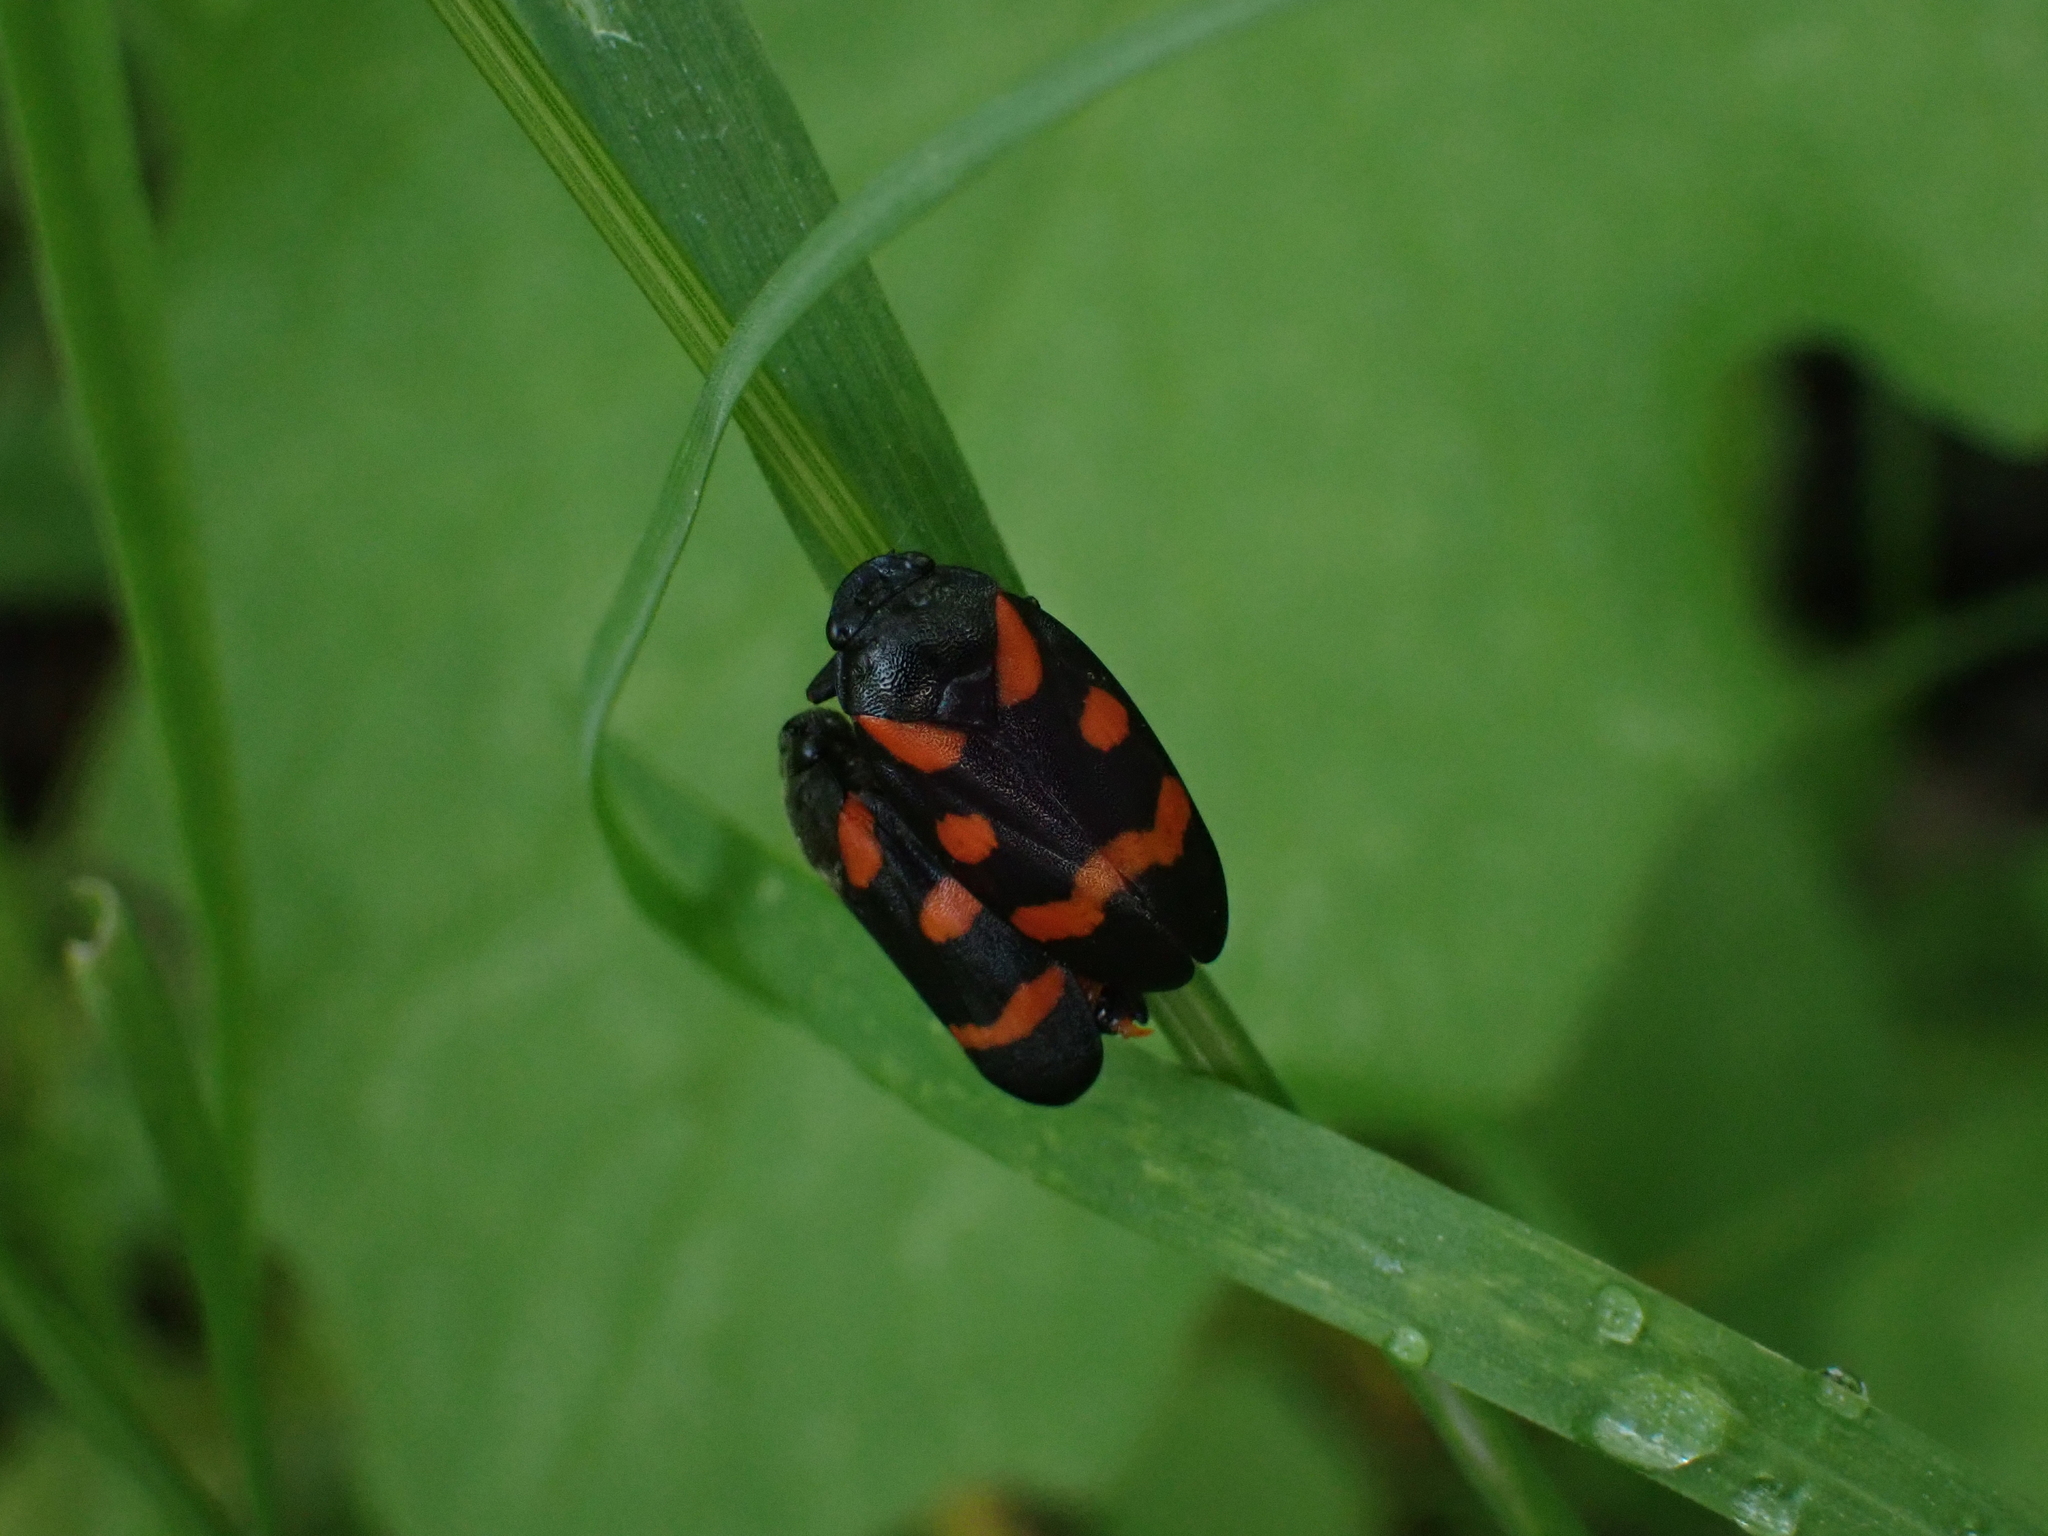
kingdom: Animalia
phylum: Arthropoda
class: Insecta
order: Hemiptera
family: Cercopidae
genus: Cercopis
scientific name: Cercopis sanguinolenta
